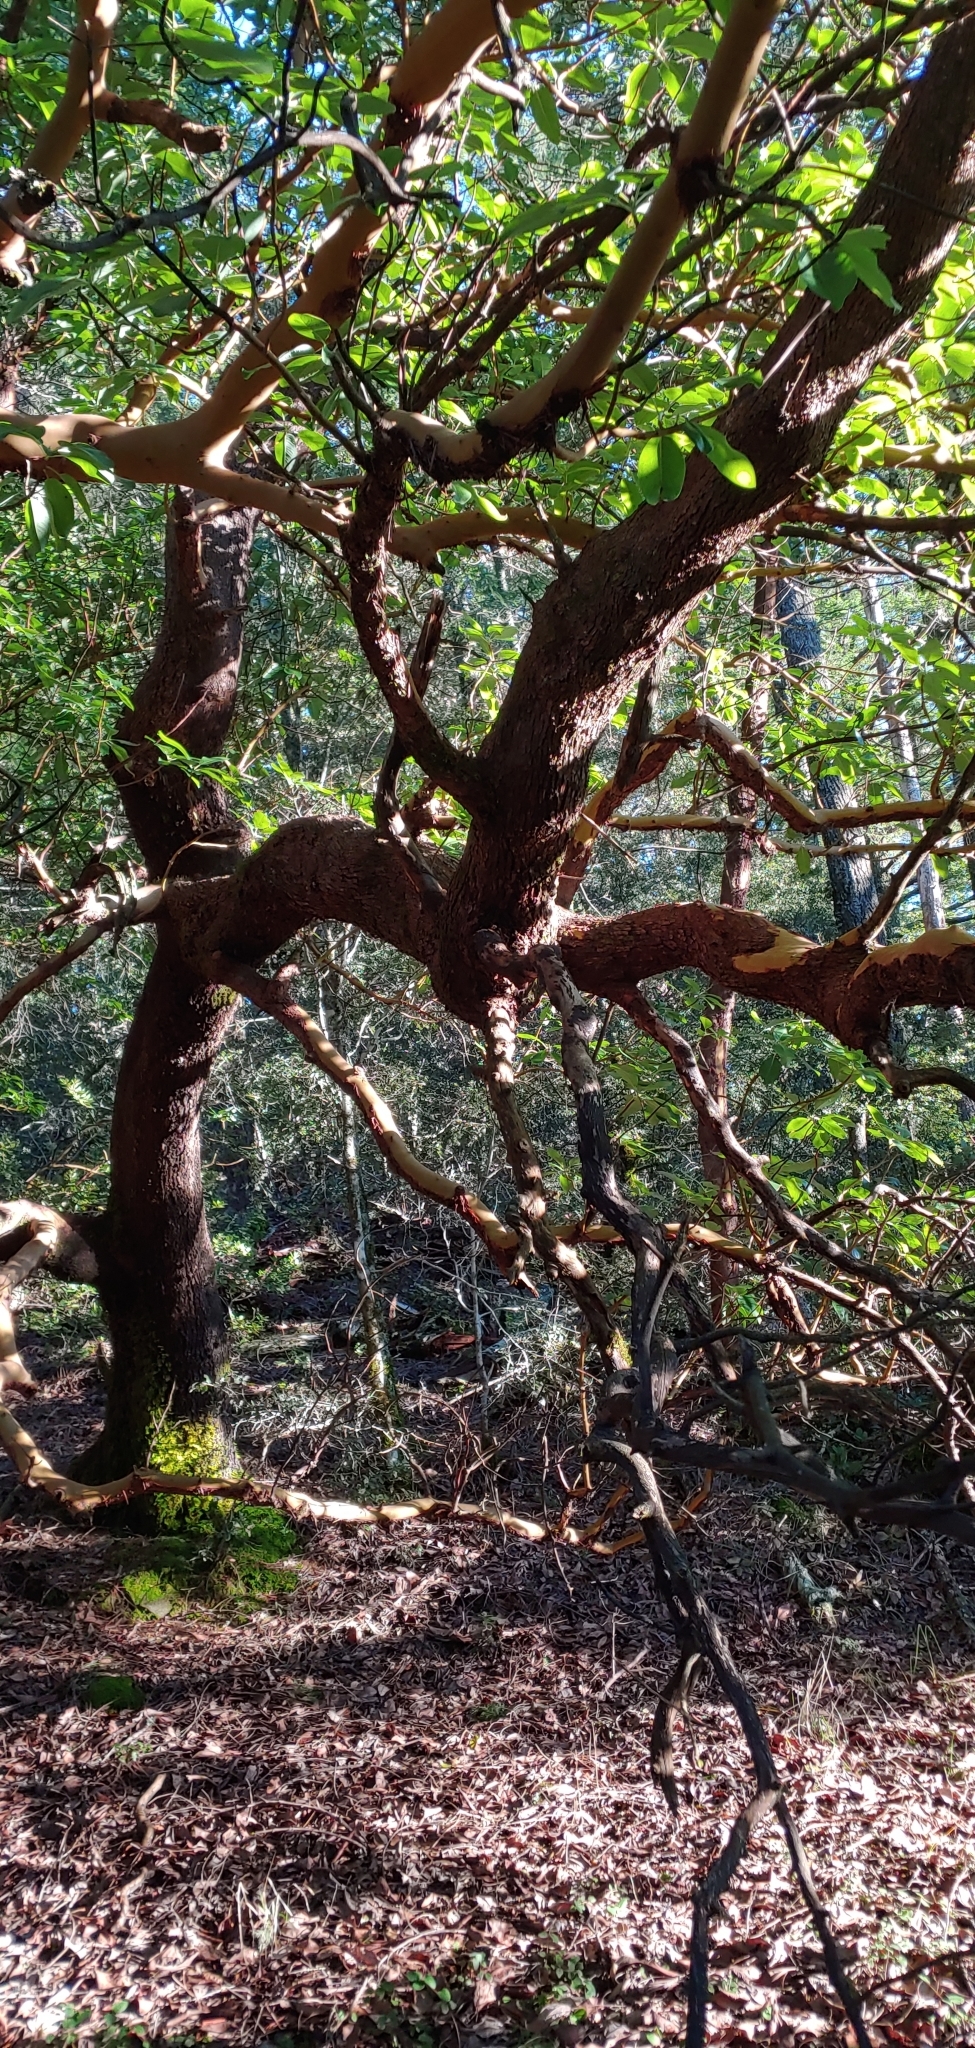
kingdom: Plantae
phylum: Tracheophyta
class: Magnoliopsida
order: Ericales
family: Ericaceae
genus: Arbutus
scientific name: Arbutus menziesii
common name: Pacific madrone
